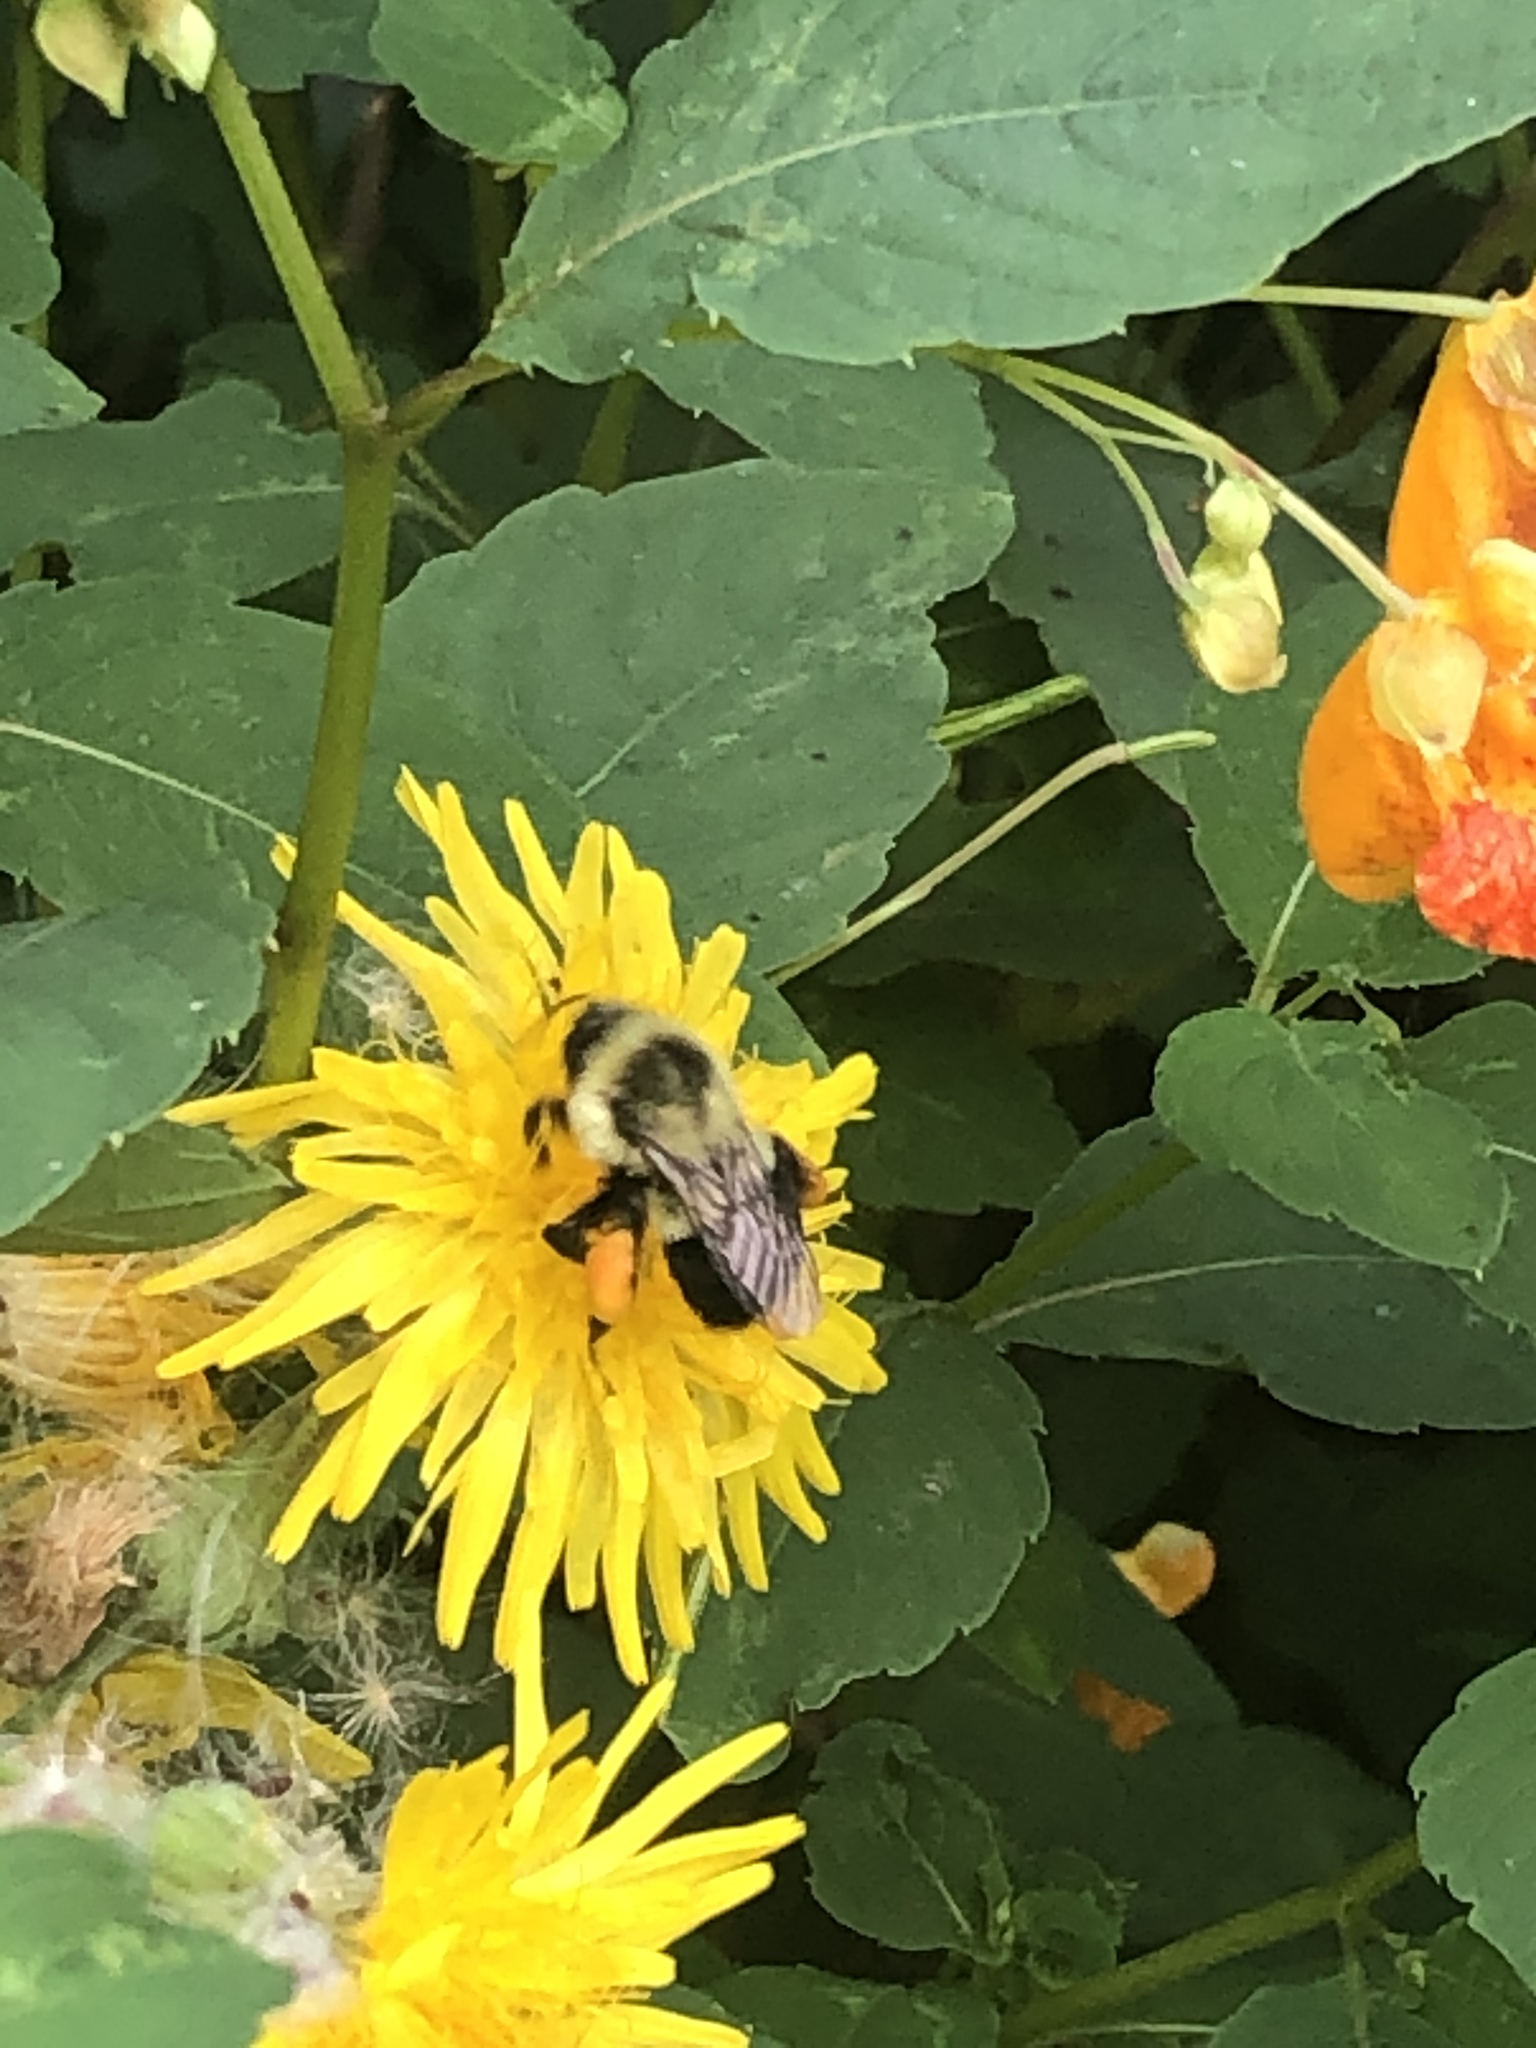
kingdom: Animalia
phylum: Arthropoda
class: Insecta
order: Hymenoptera
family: Apidae
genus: Bombus
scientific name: Bombus impatiens
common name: Common eastern bumble bee
